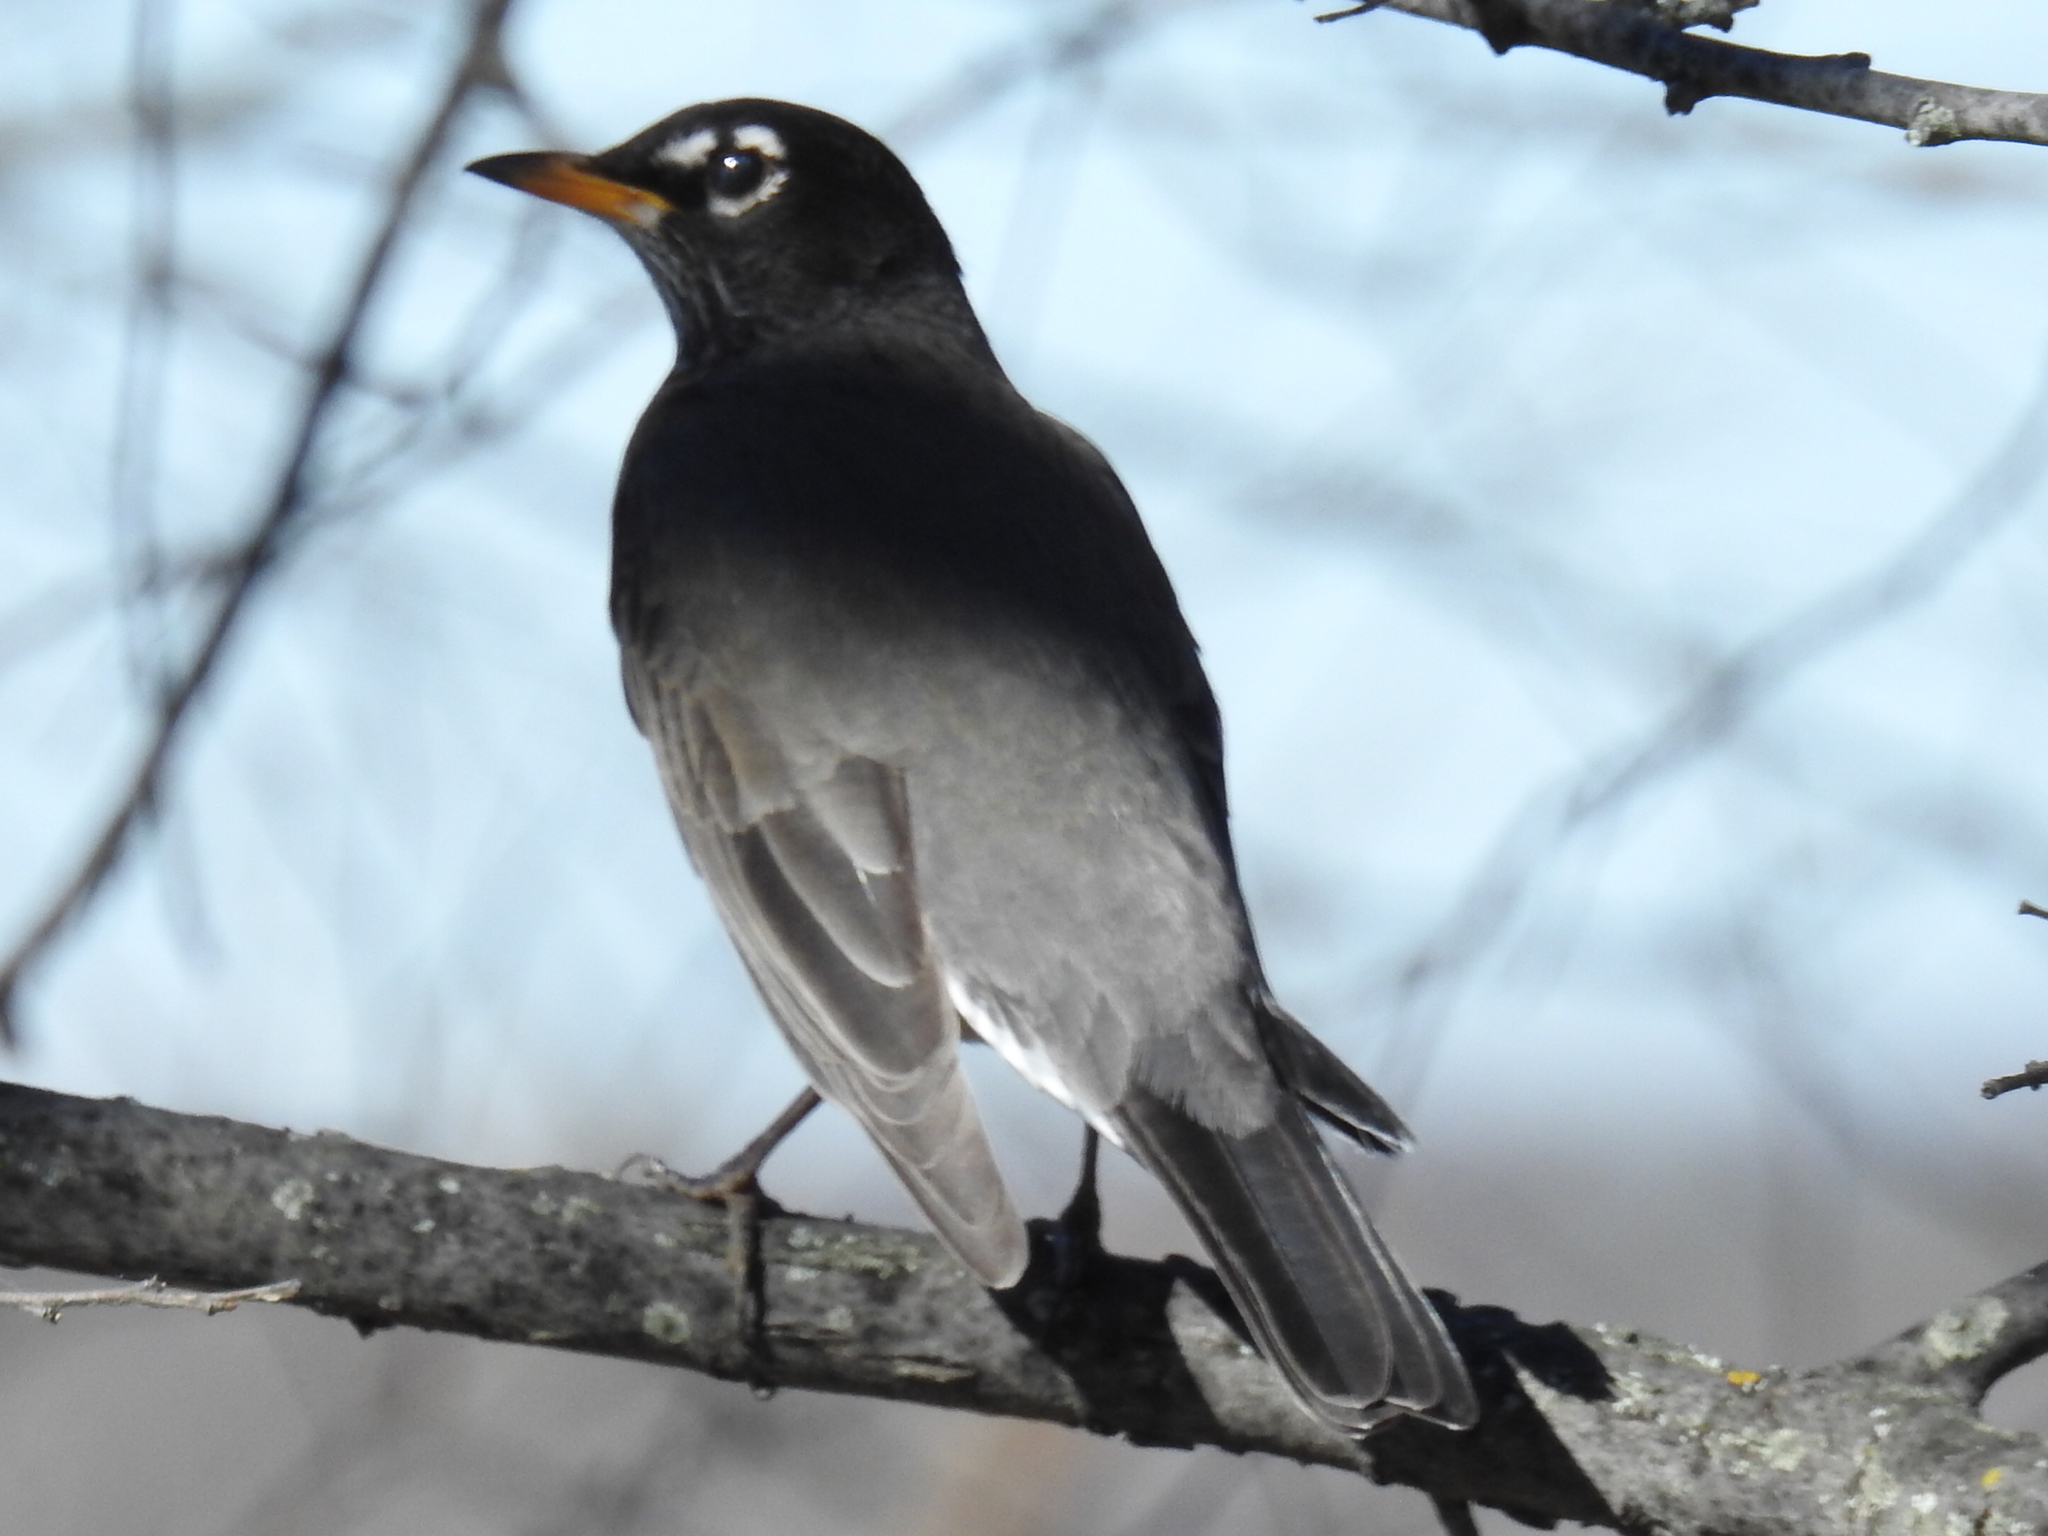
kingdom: Animalia
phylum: Chordata
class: Aves
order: Passeriformes
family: Turdidae
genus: Turdus
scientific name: Turdus migratorius
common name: American robin
